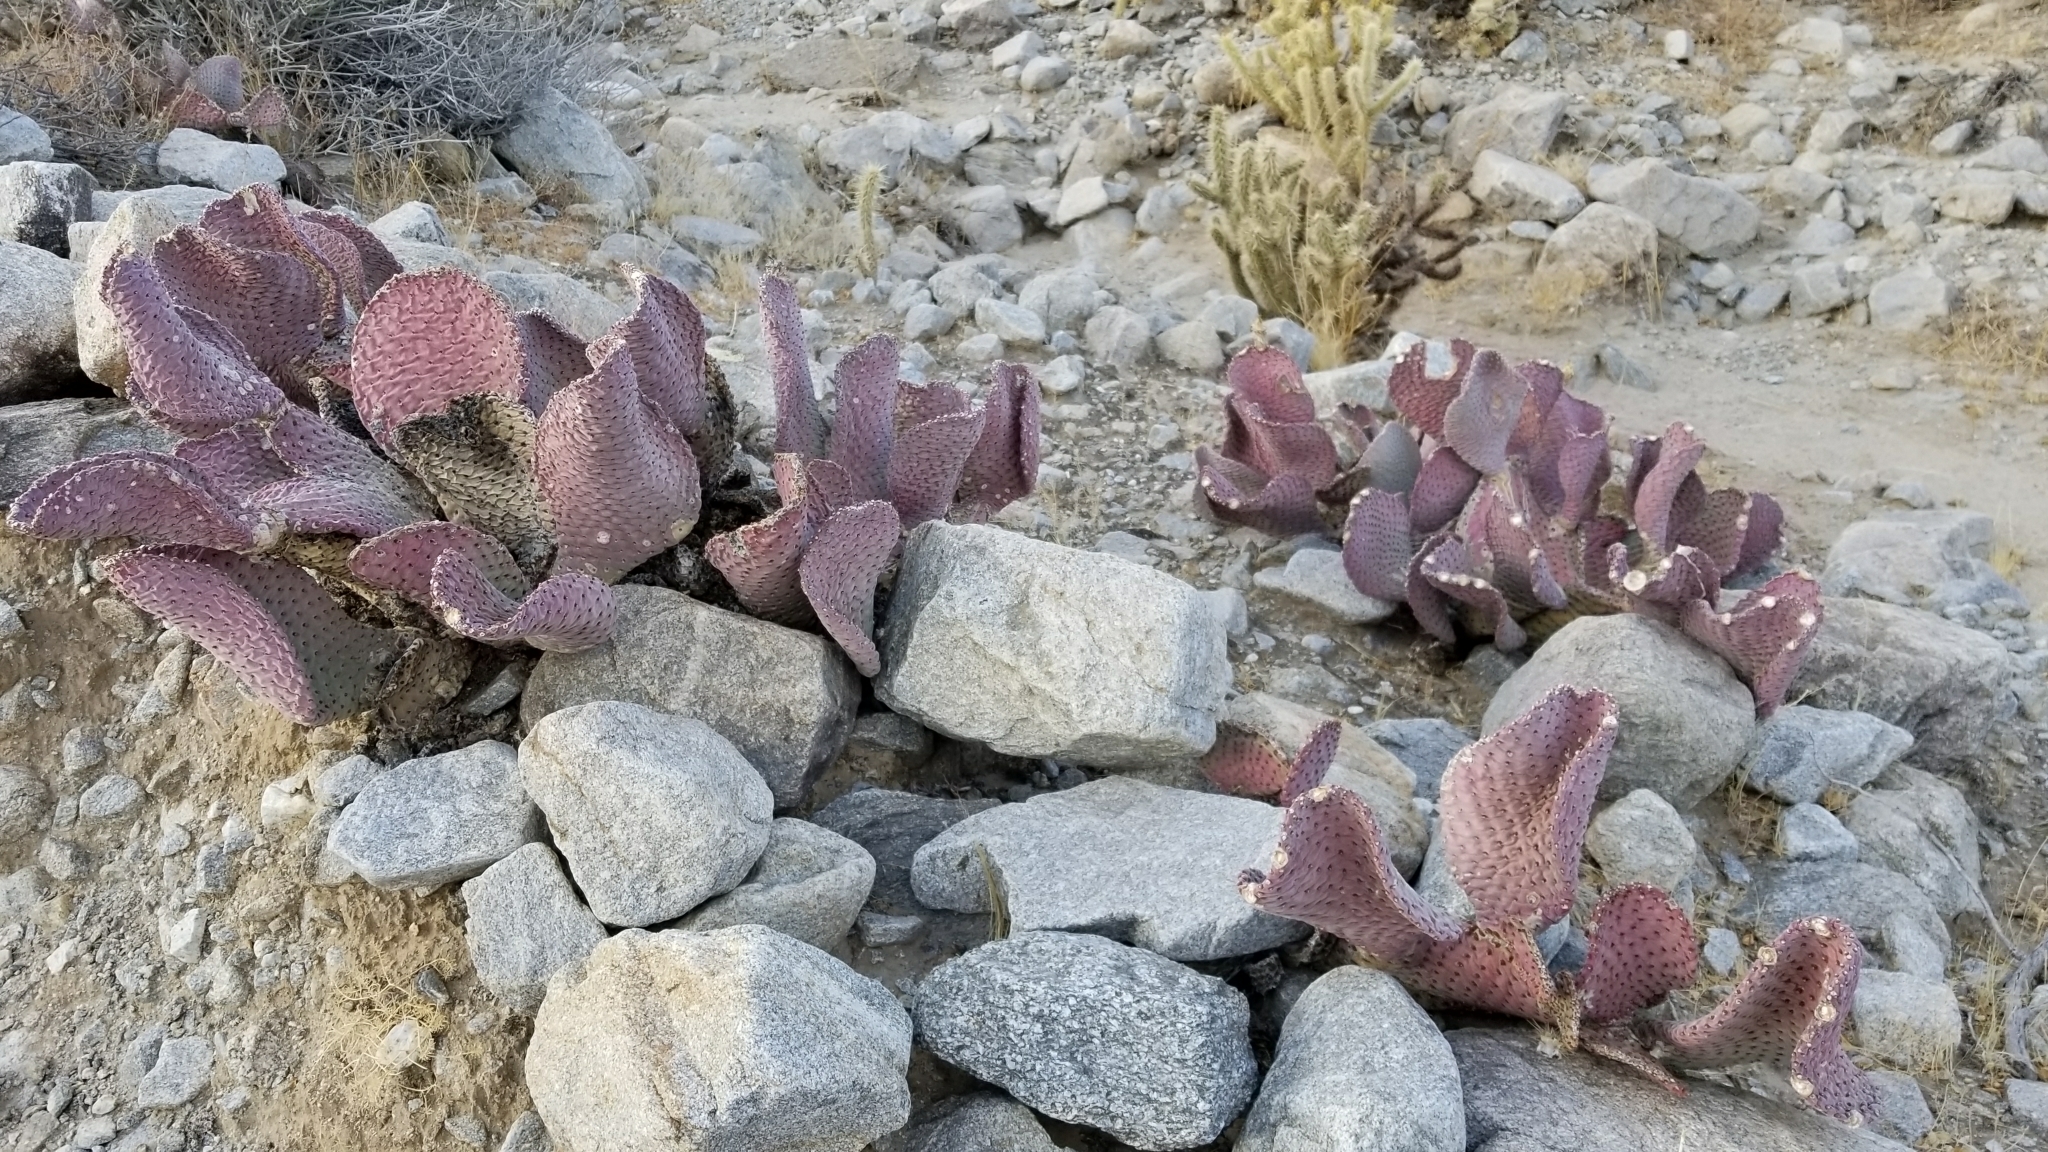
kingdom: Plantae
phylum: Tracheophyta
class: Magnoliopsida
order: Caryophyllales
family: Cactaceae
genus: Opuntia
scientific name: Opuntia basilaris
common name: Beavertail prickly-pear
